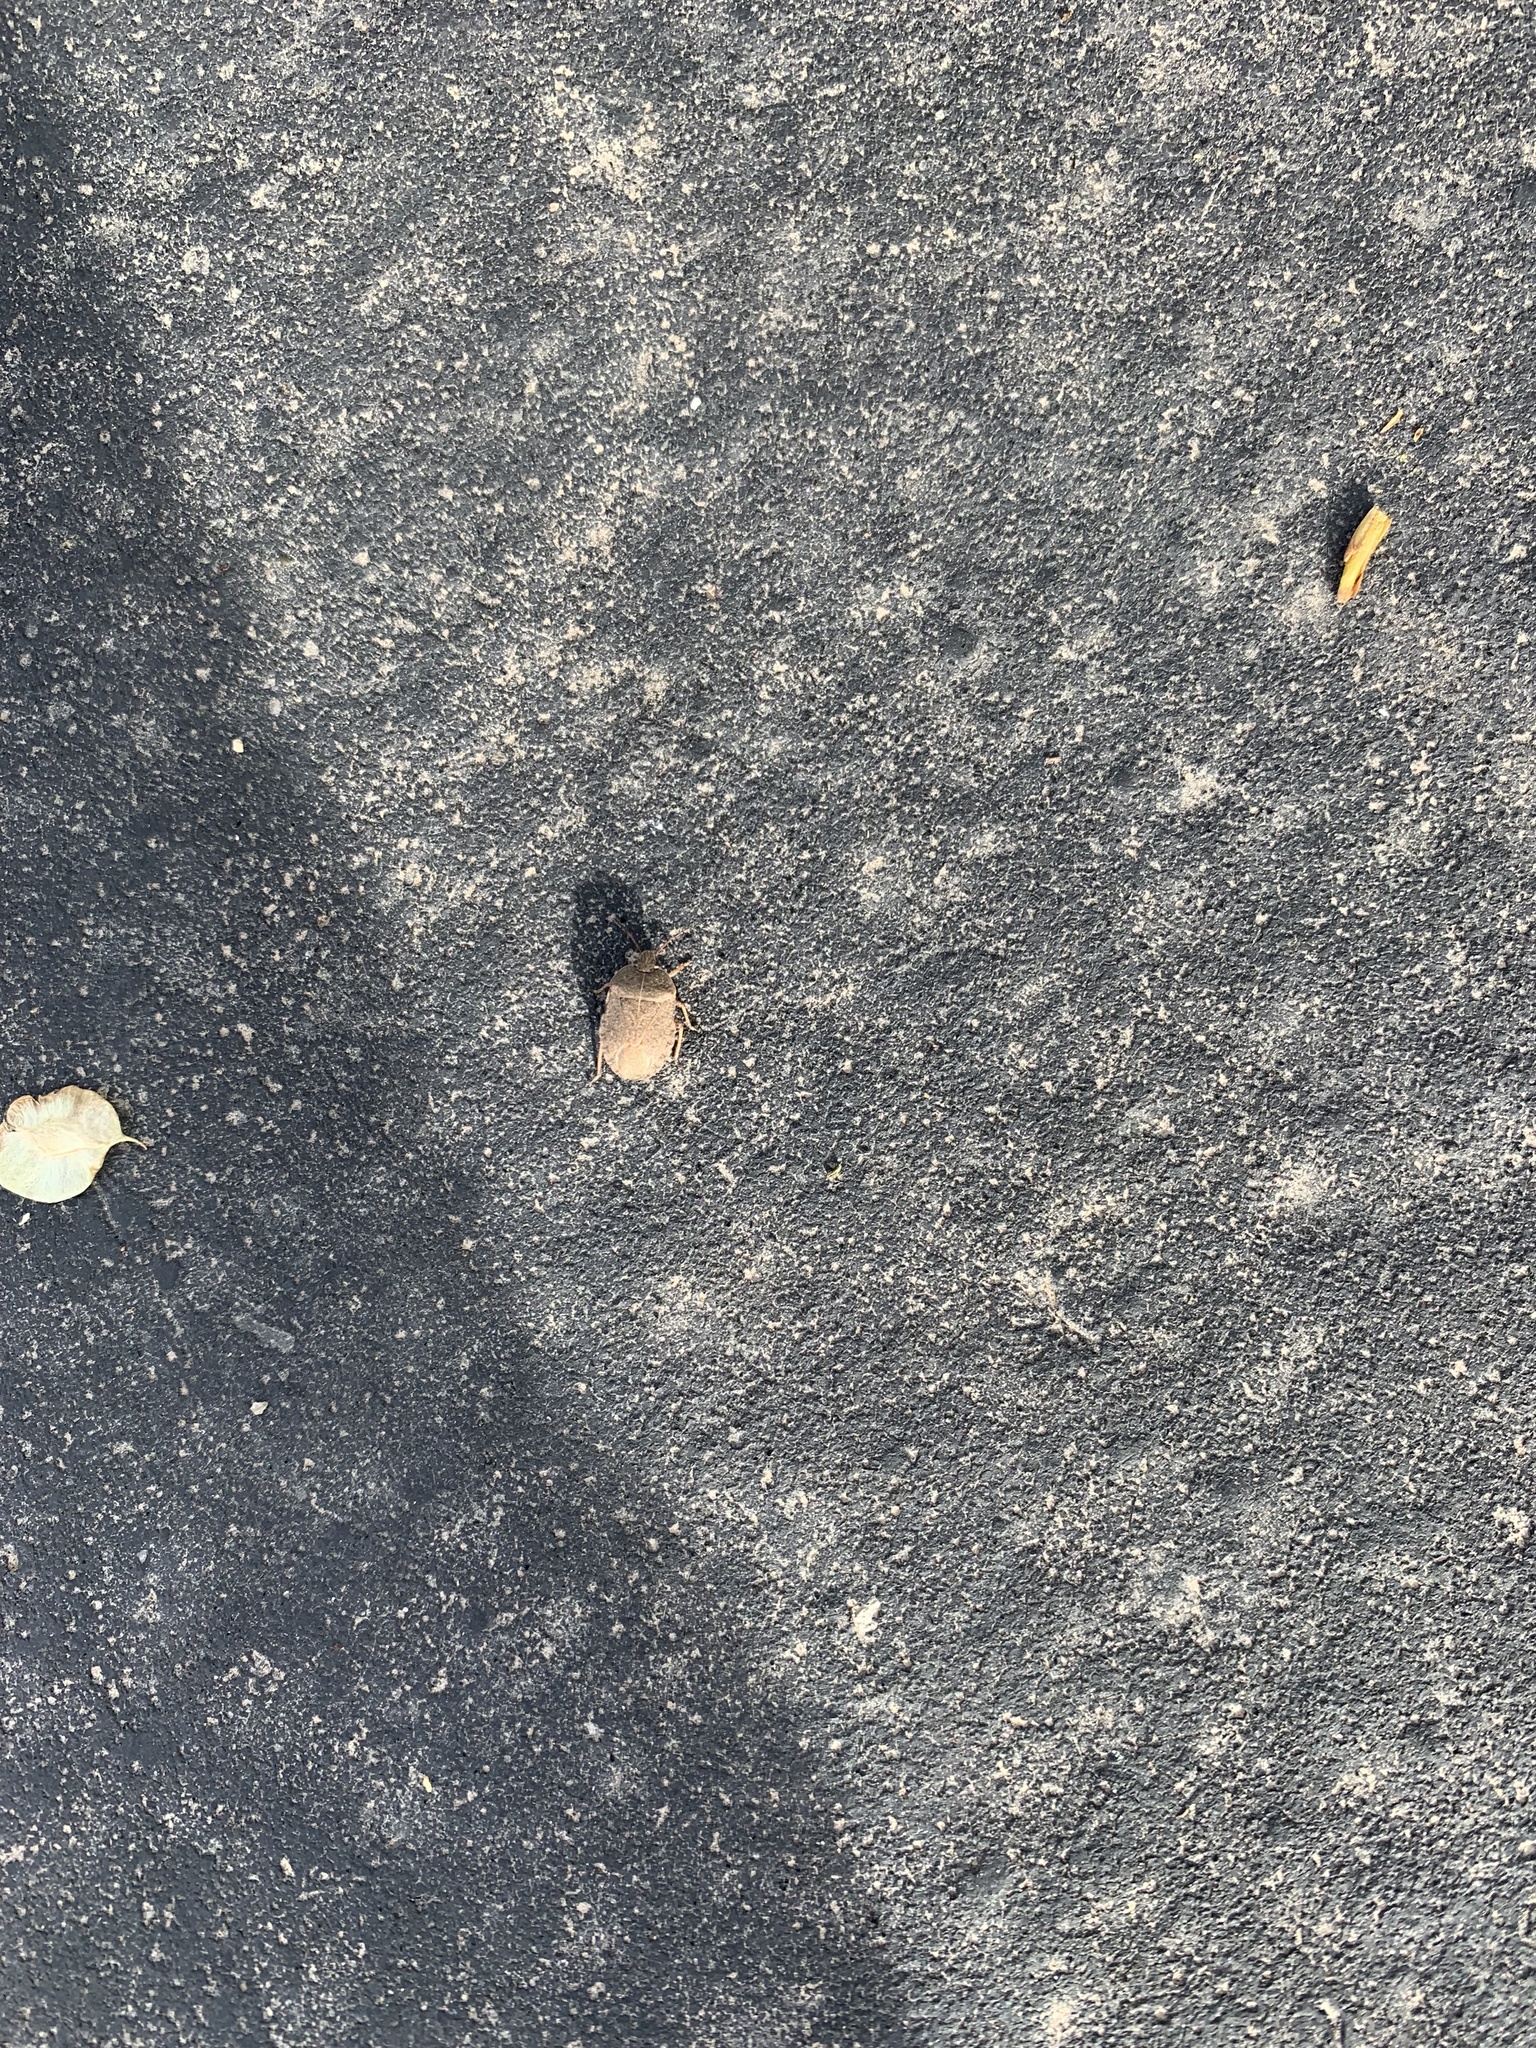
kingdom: Animalia
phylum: Arthropoda
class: Insecta
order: Hemiptera
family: Pentatomidae
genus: Menecles
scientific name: Menecles insertus
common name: Elf shoe stink bug
